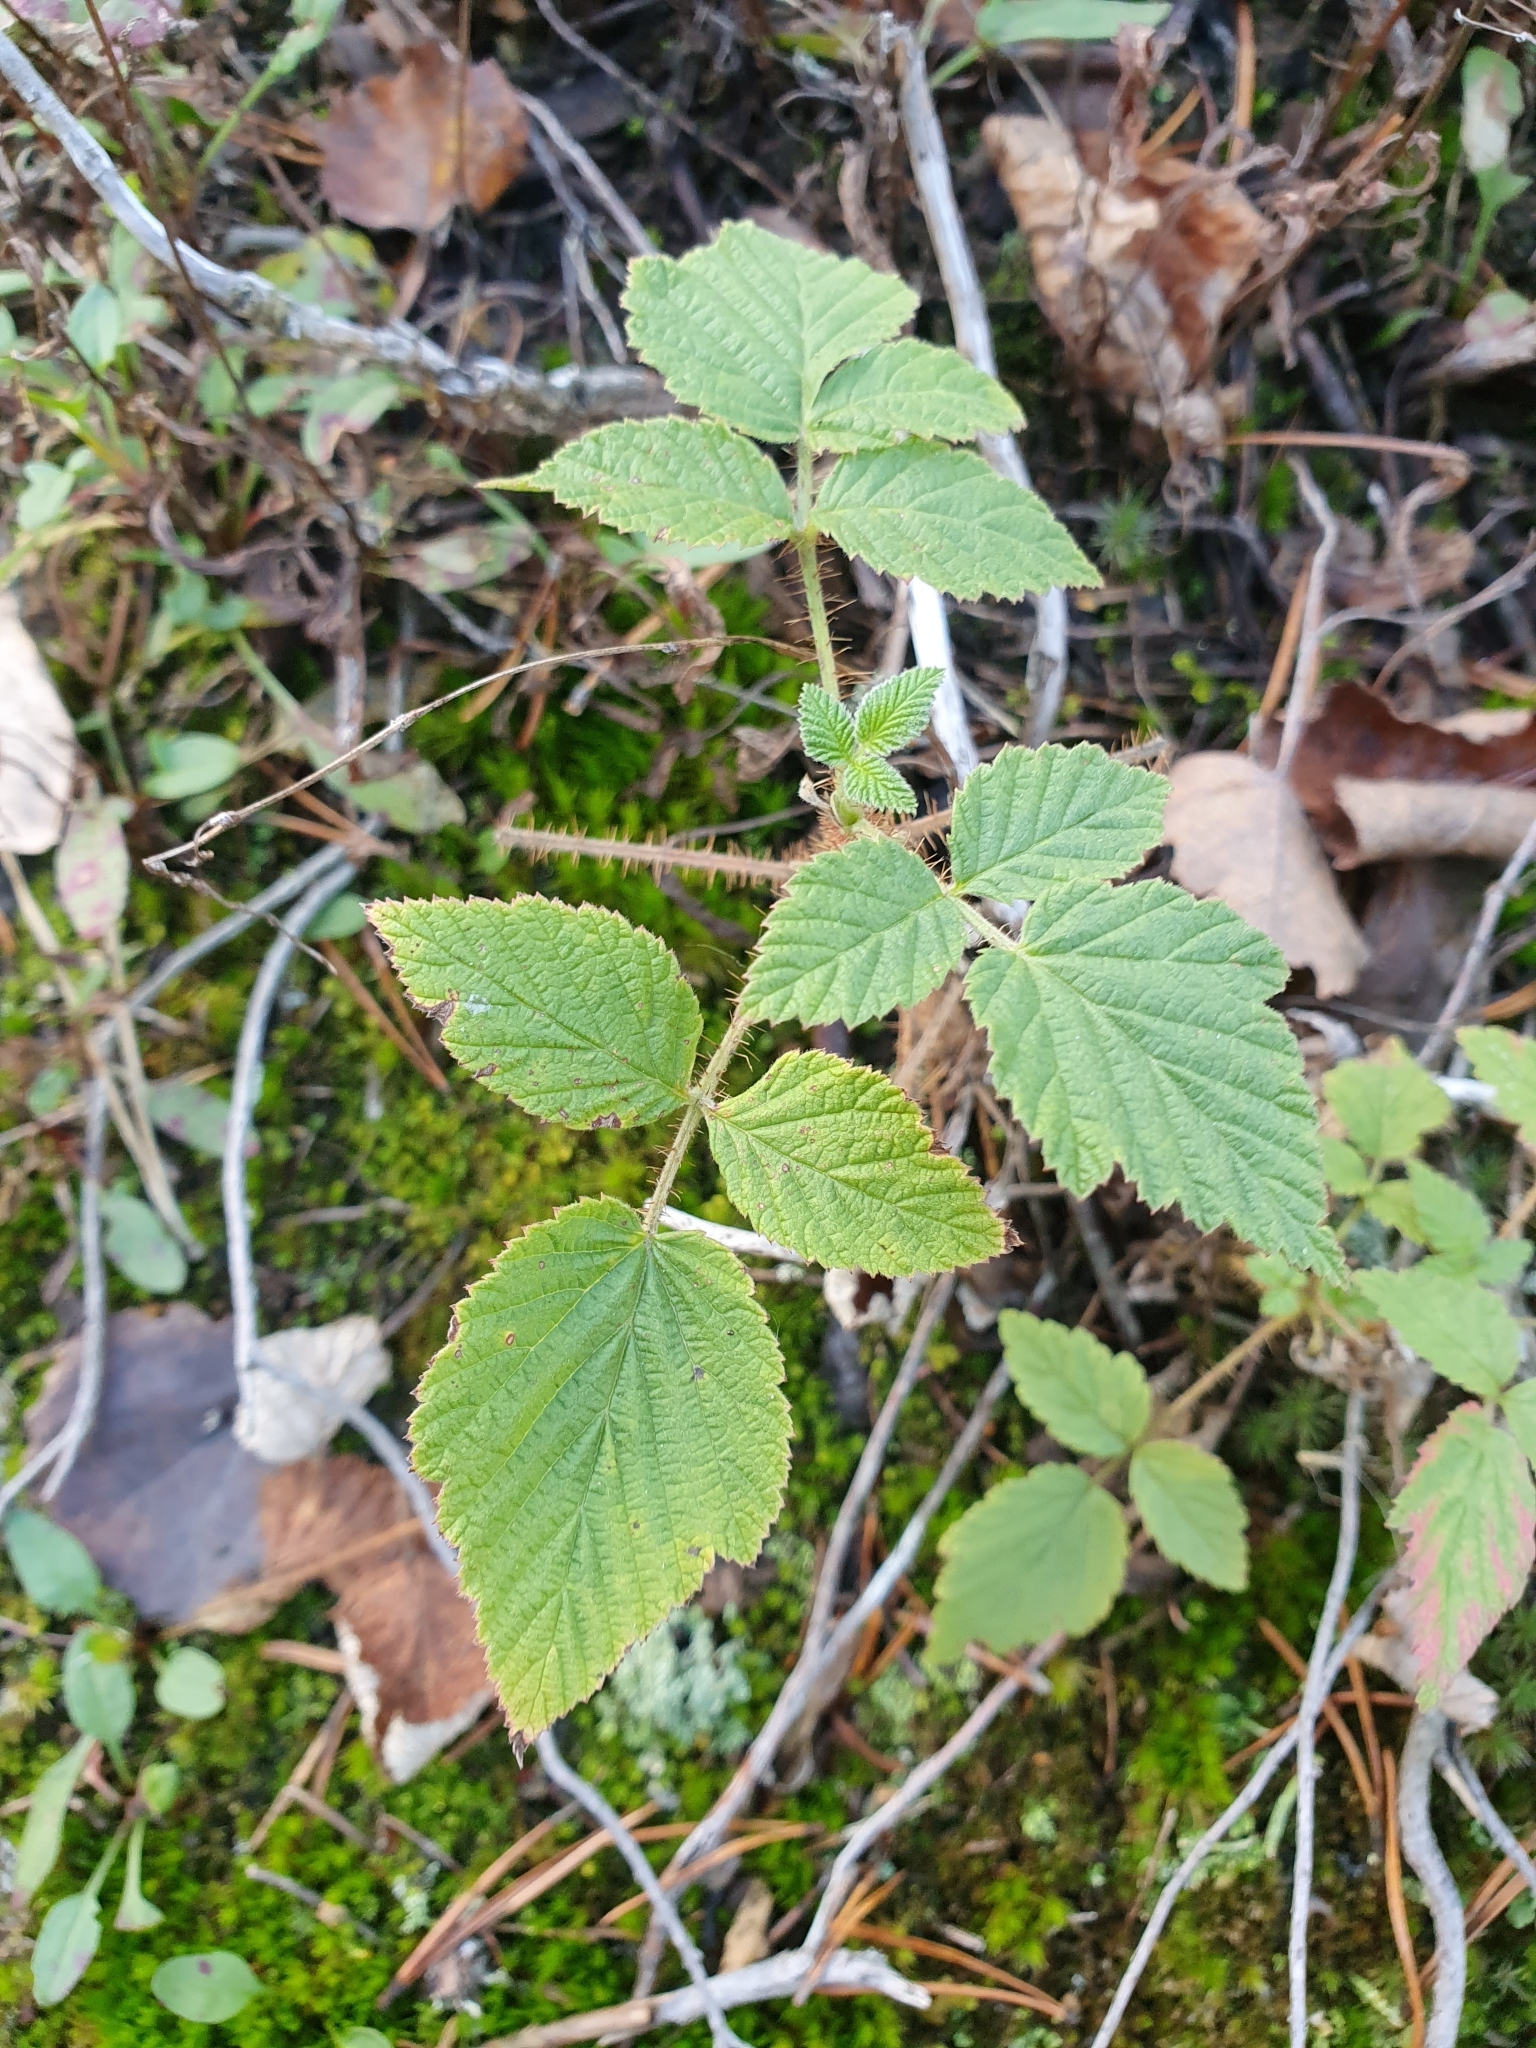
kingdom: Plantae
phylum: Tracheophyta
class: Magnoliopsida
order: Rosales
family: Rosaceae
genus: Rubus
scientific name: Rubus idaeus
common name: Raspberry
